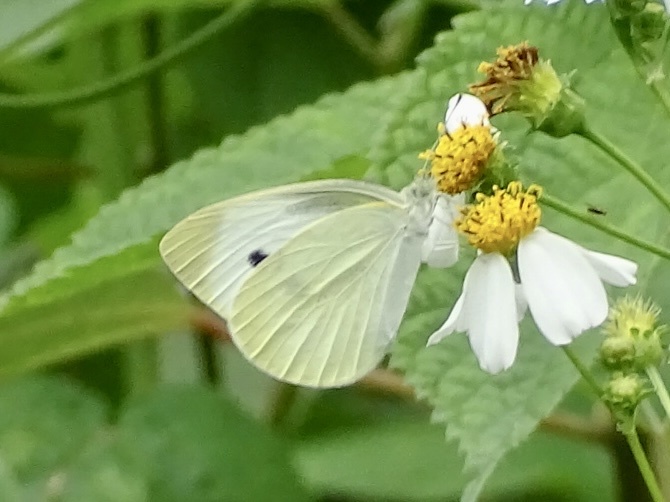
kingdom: Animalia
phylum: Arthropoda
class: Insecta
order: Lepidoptera
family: Pieridae
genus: Pieris
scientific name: Pieris rapae
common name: Small white
